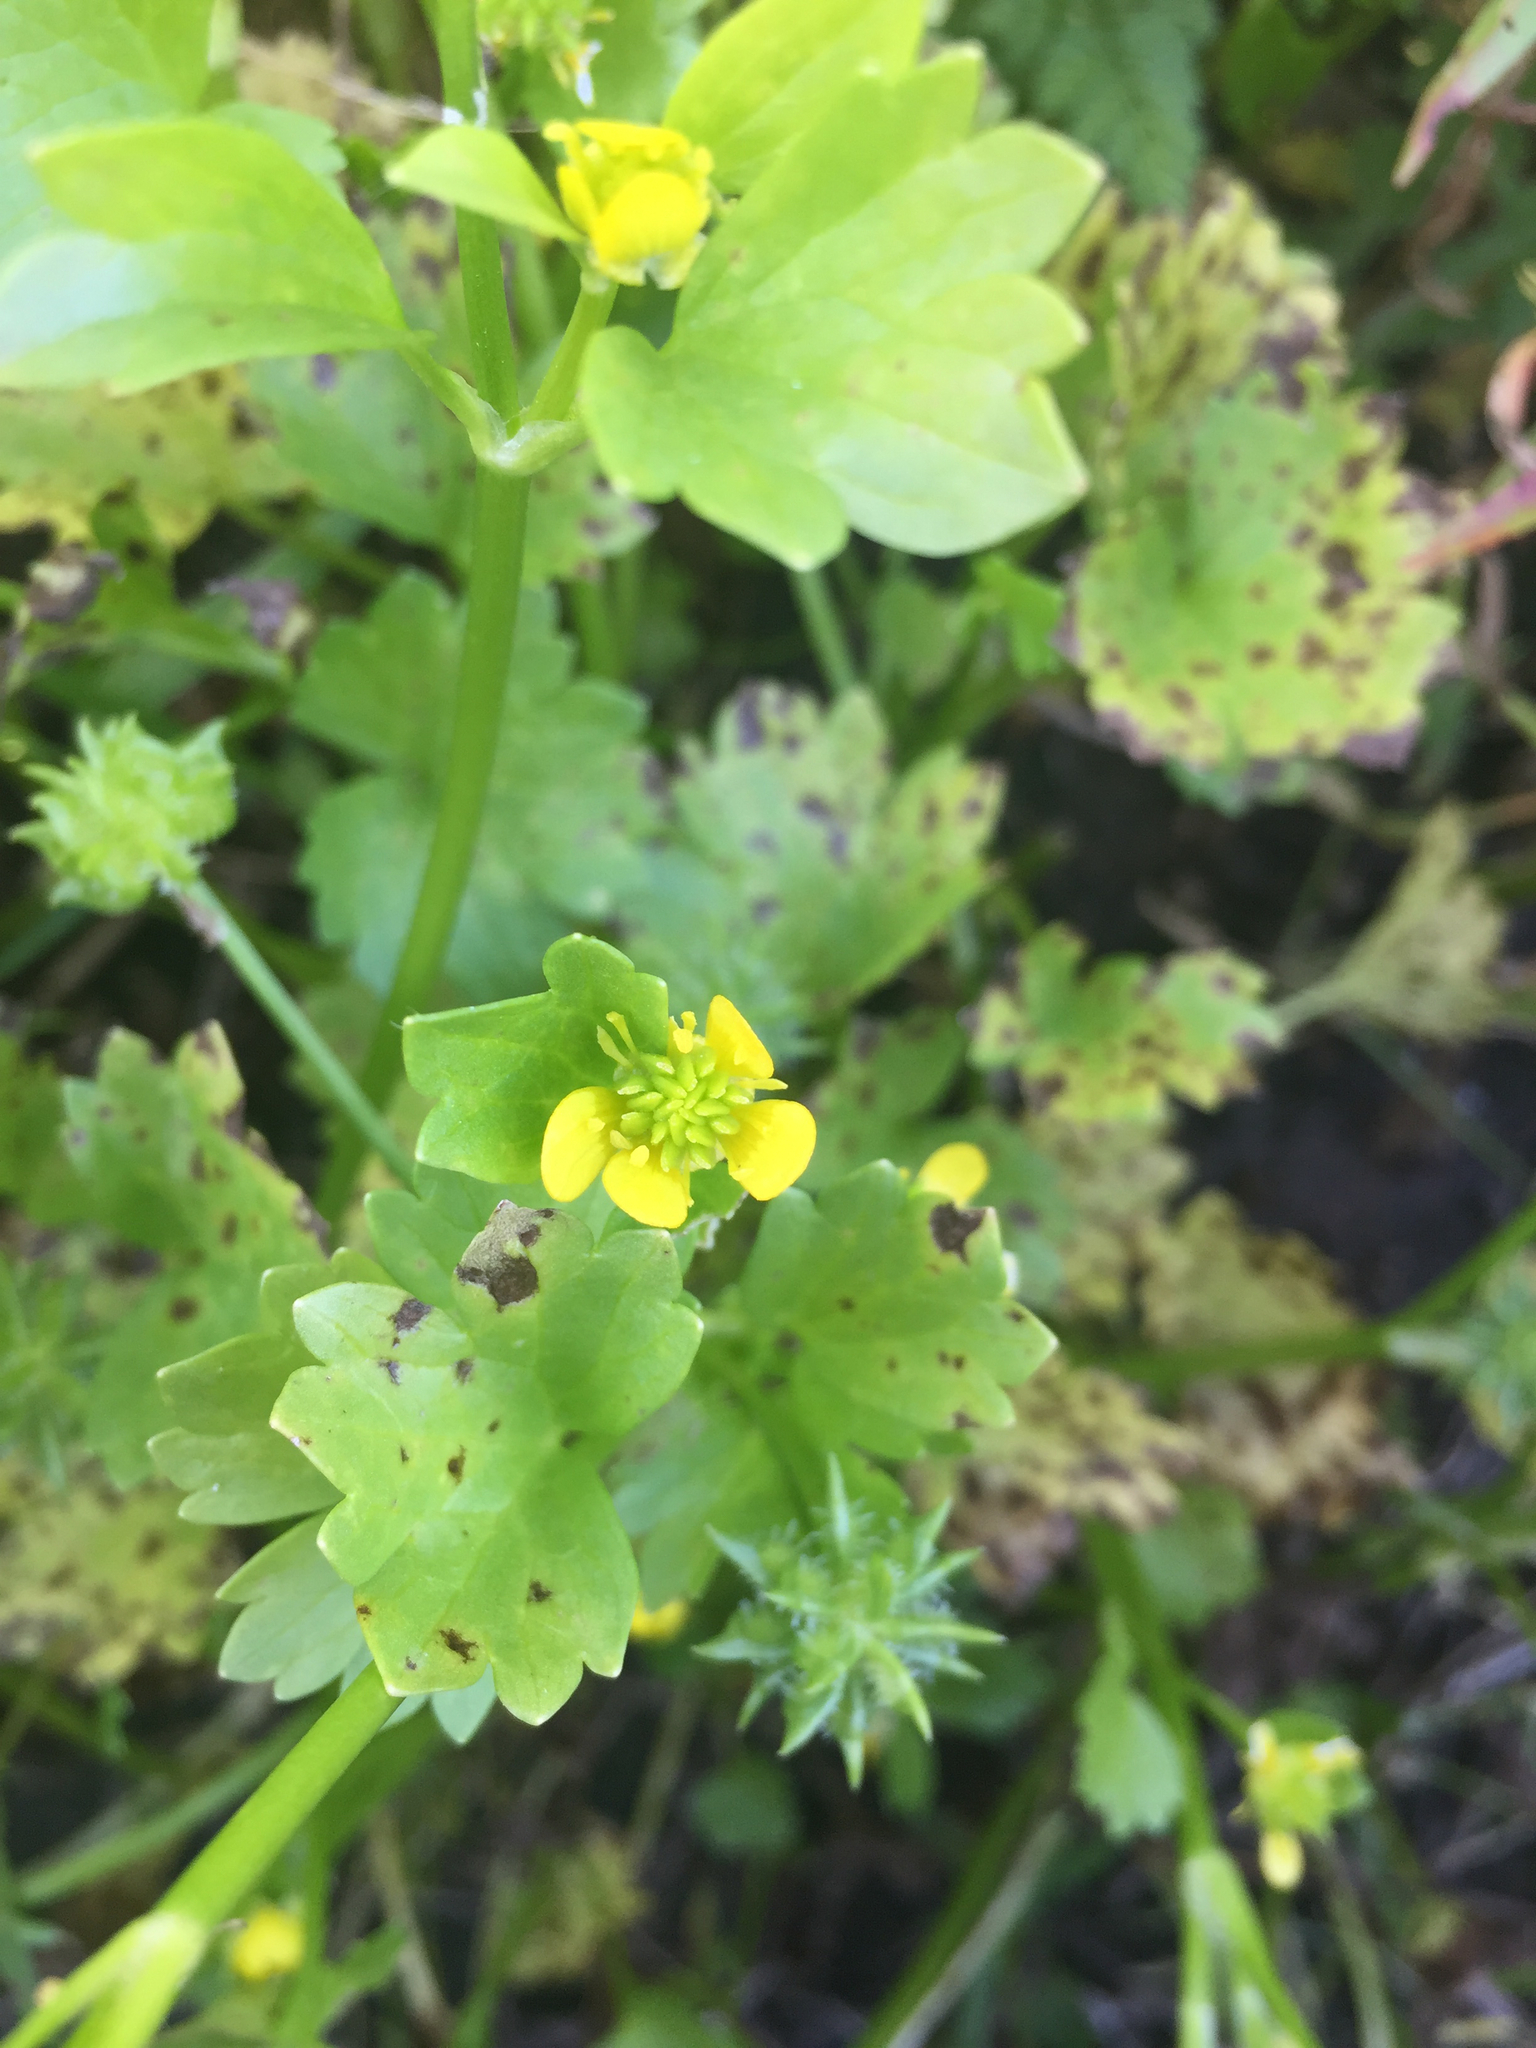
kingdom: Plantae
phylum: Tracheophyta
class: Magnoliopsida
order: Ranunculales
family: Ranunculaceae
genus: Ranunculus
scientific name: Ranunculus muricatus
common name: Rough-fruited buttercup
